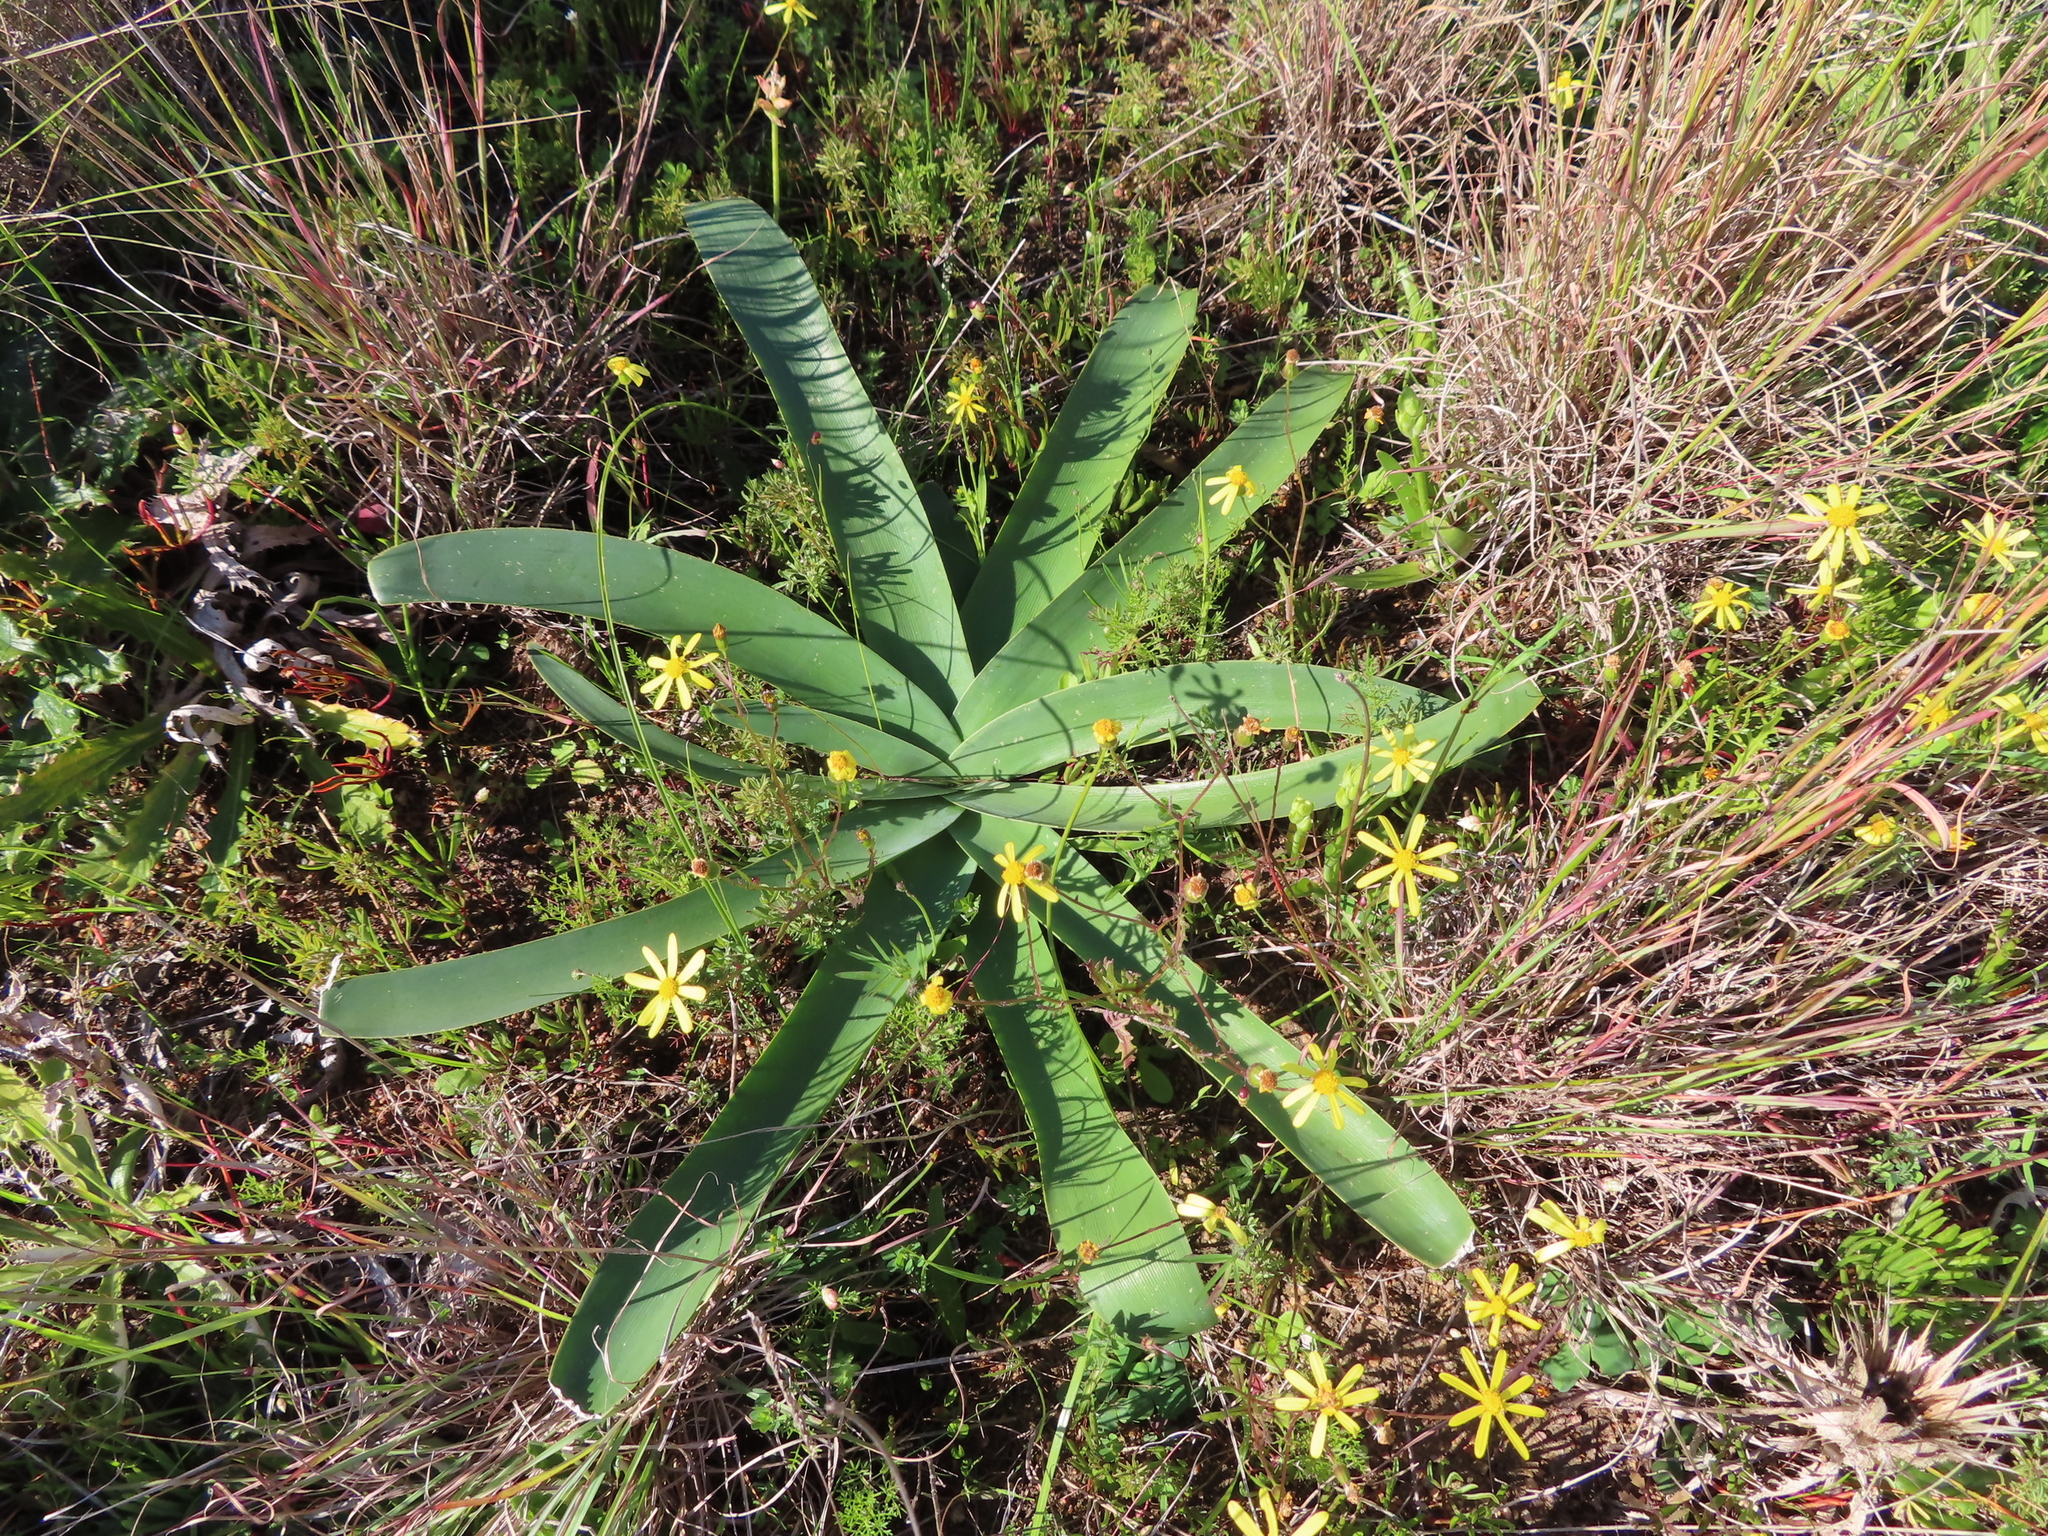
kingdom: Plantae
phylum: Tracheophyta
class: Liliopsida
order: Asparagales
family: Amaryllidaceae
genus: Ammocharis
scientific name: Ammocharis longifolia
